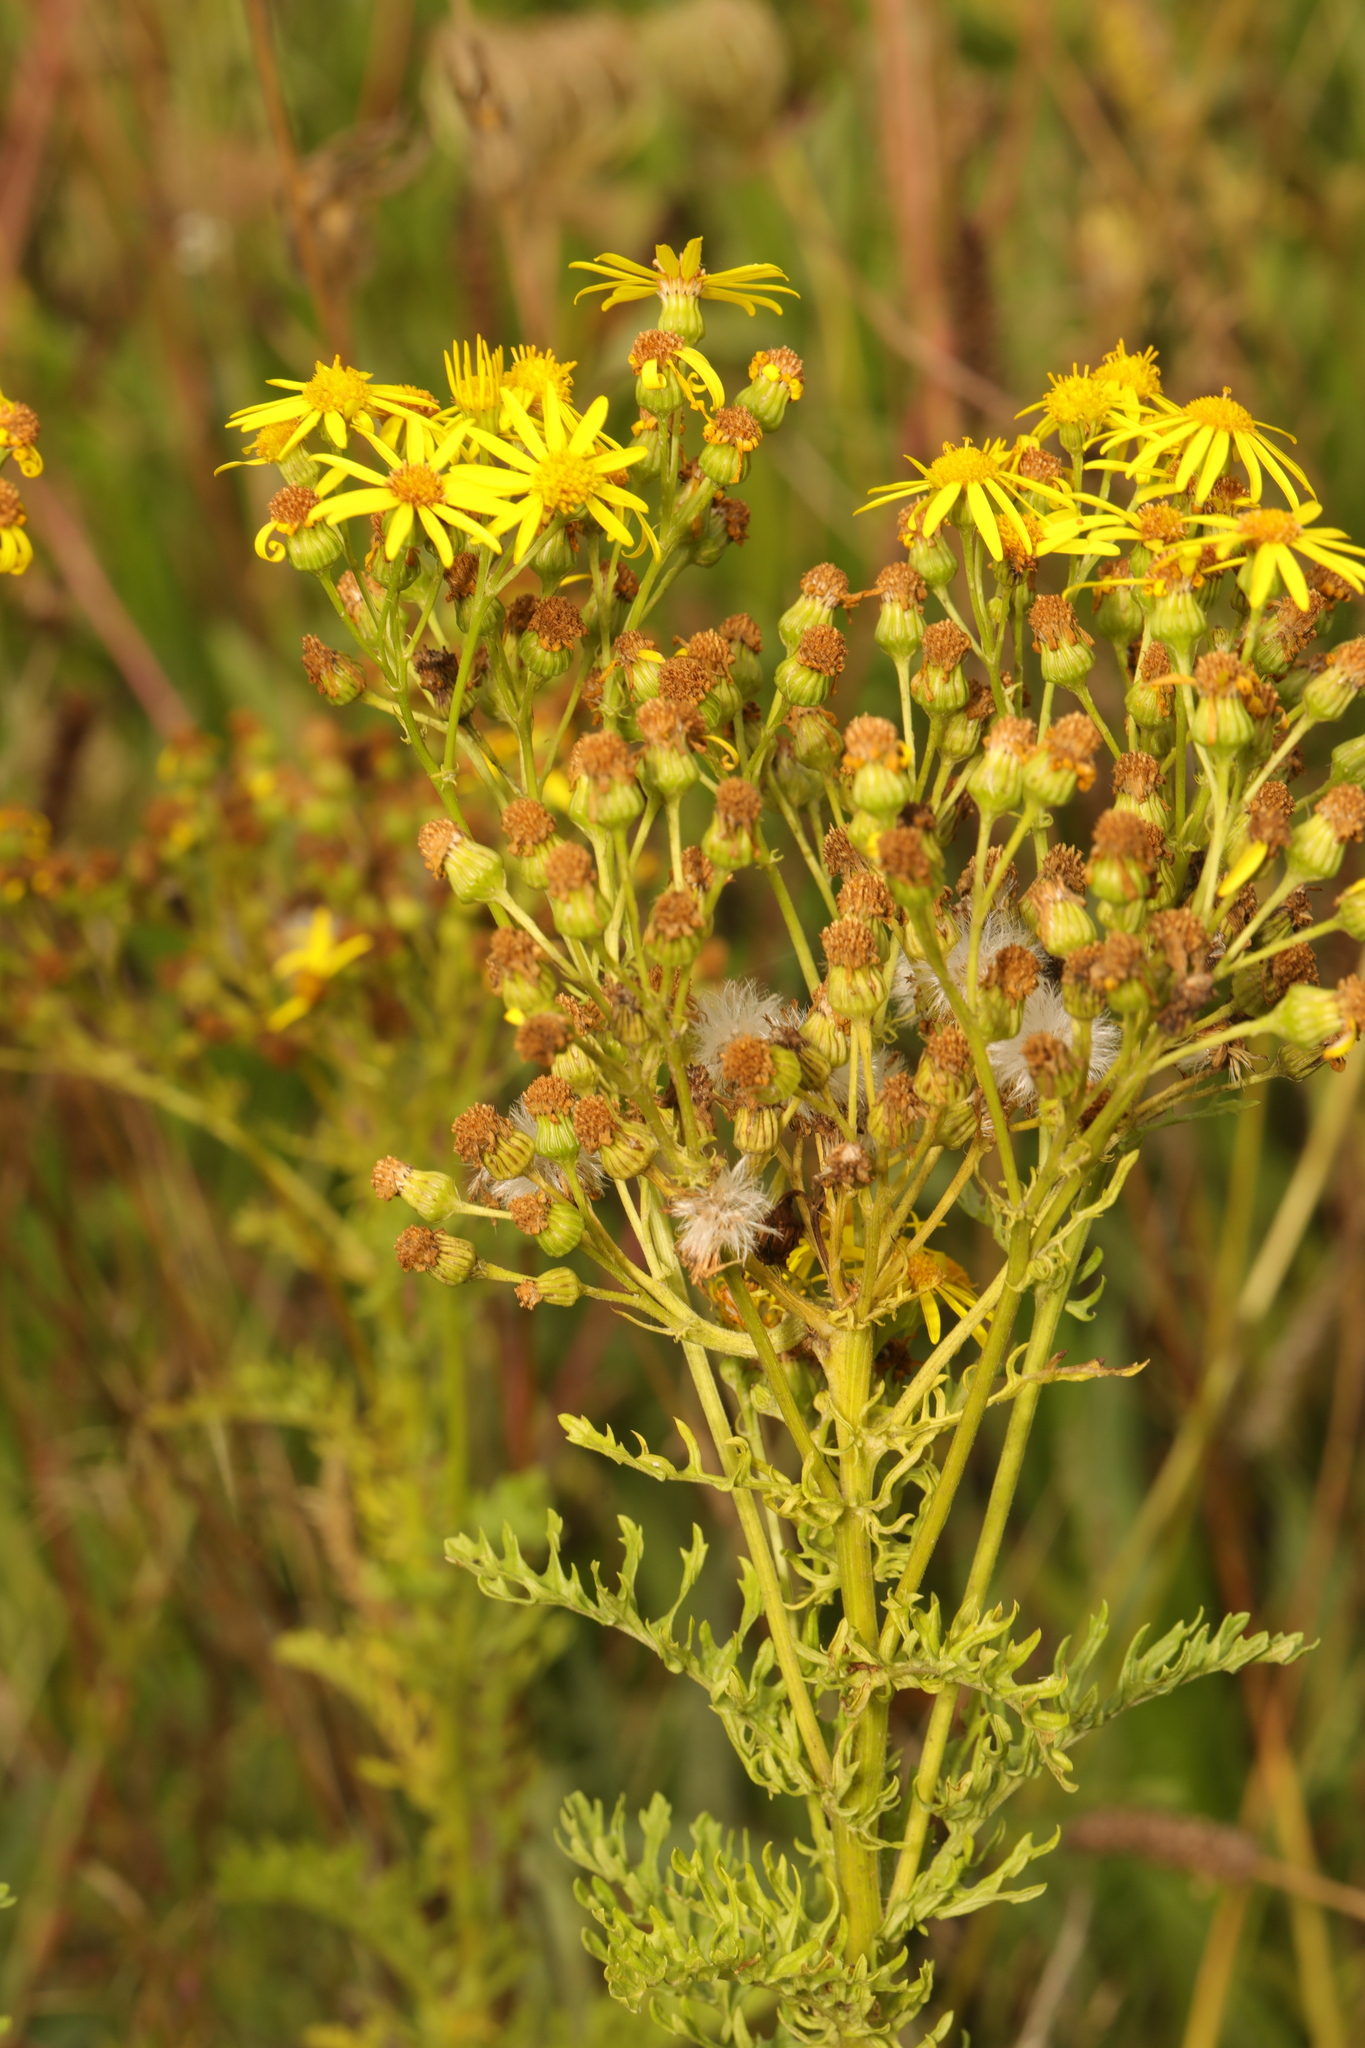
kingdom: Plantae
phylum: Tracheophyta
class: Magnoliopsida
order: Asterales
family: Asteraceae
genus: Jacobaea
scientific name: Jacobaea vulgaris
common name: Stinking willie
